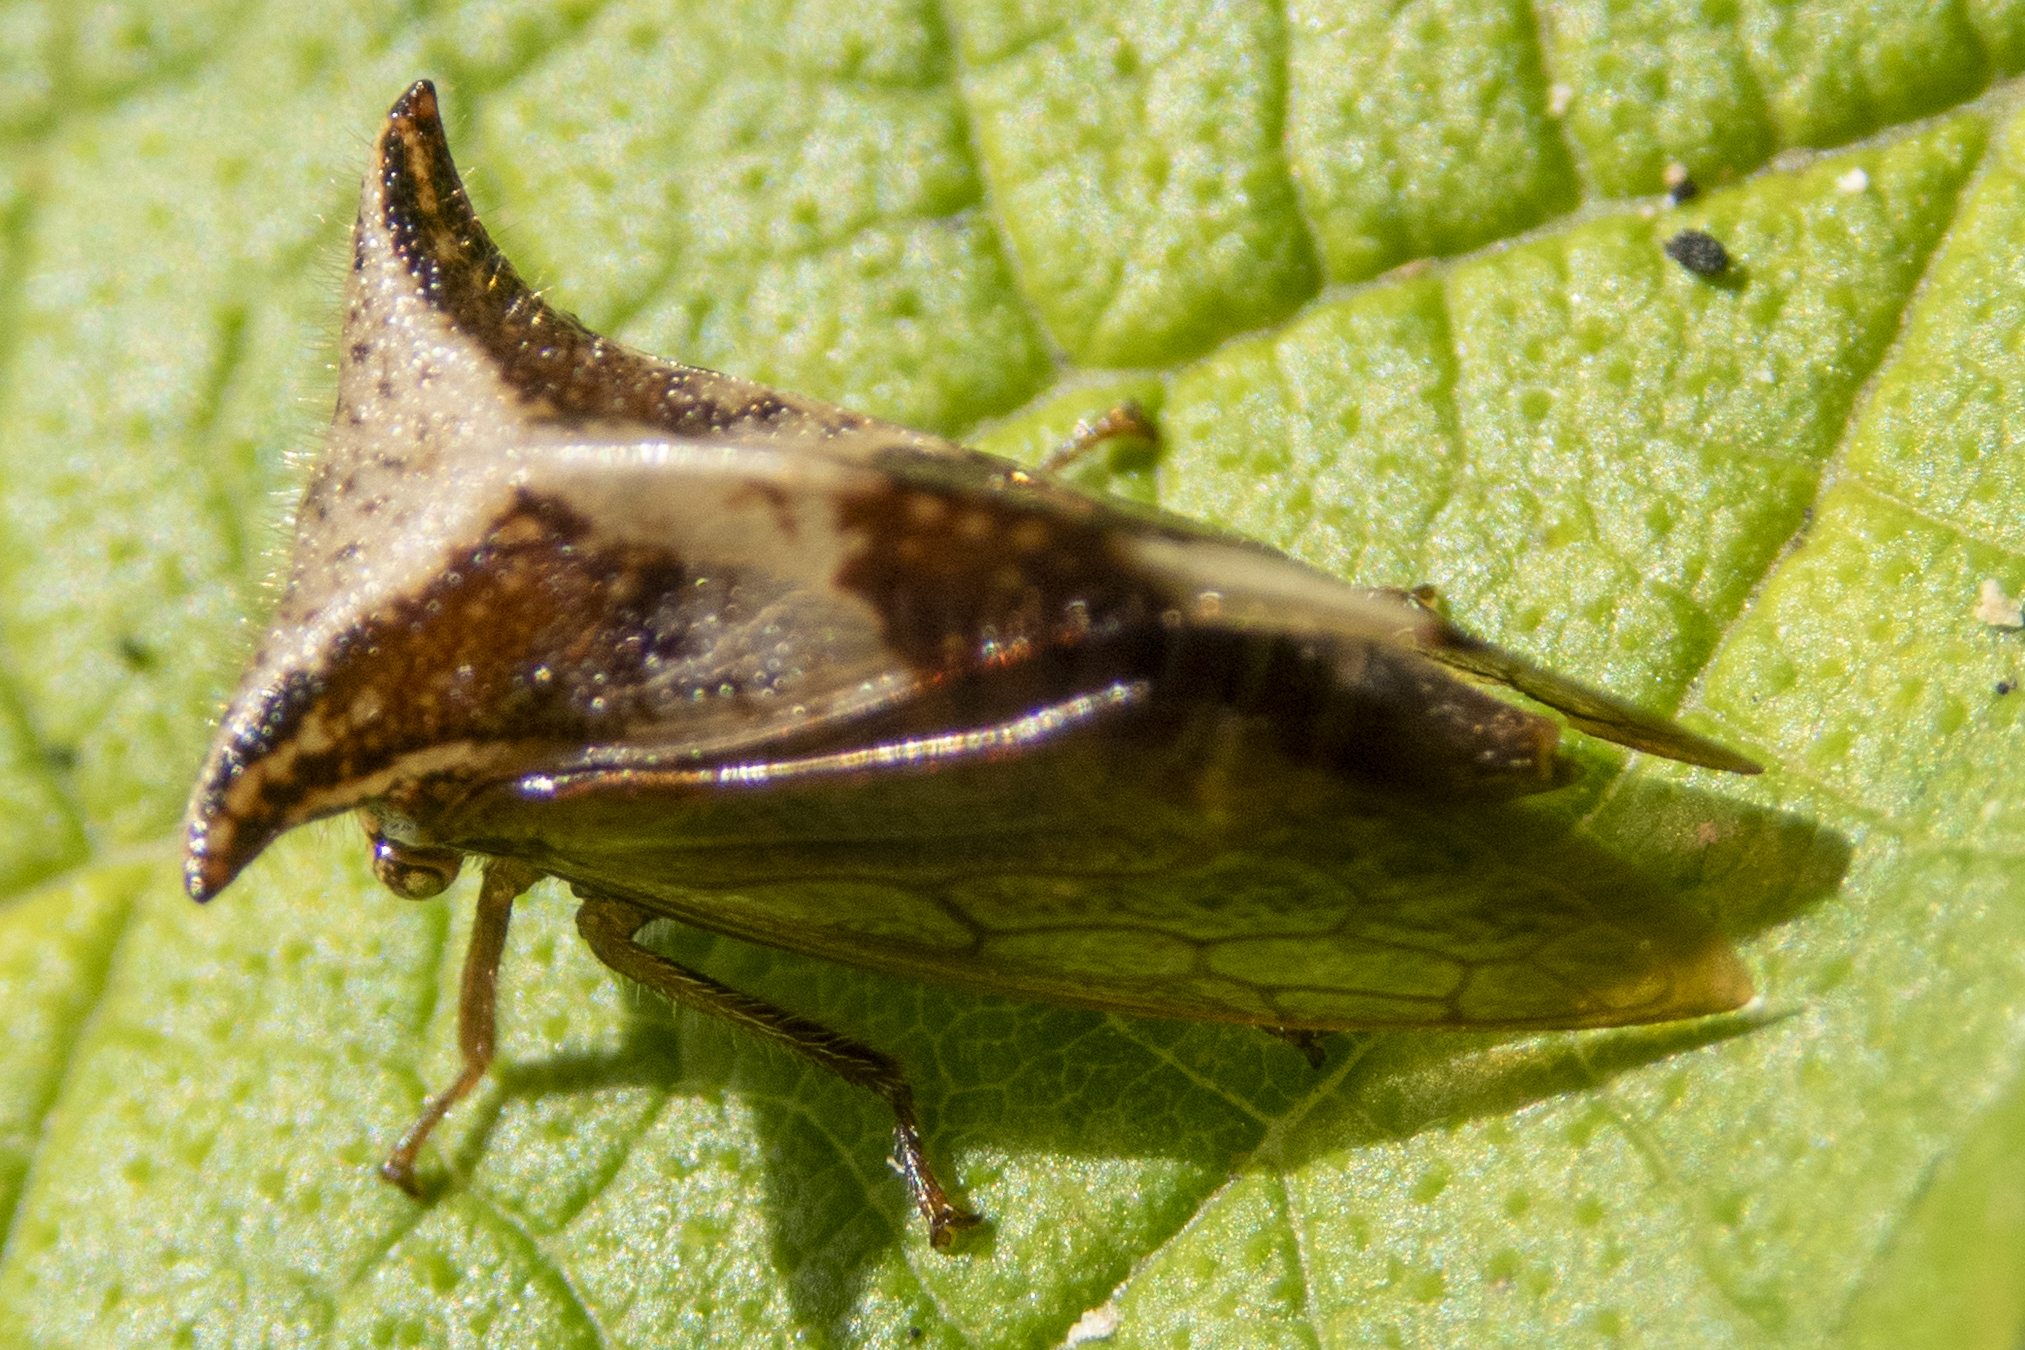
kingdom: Animalia
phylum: Arthropoda
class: Insecta
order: Hemiptera
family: Membracidae
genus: Stictocephala
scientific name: Stictocephala diceros
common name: Two-horned treehopper
